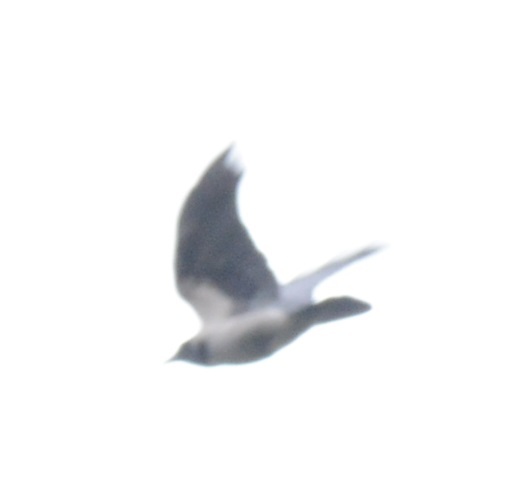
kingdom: Animalia
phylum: Chordata
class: Aves
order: Passeriformes
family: Corvidae
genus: Corvus
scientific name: Corvus cornix
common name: Hooded crow
